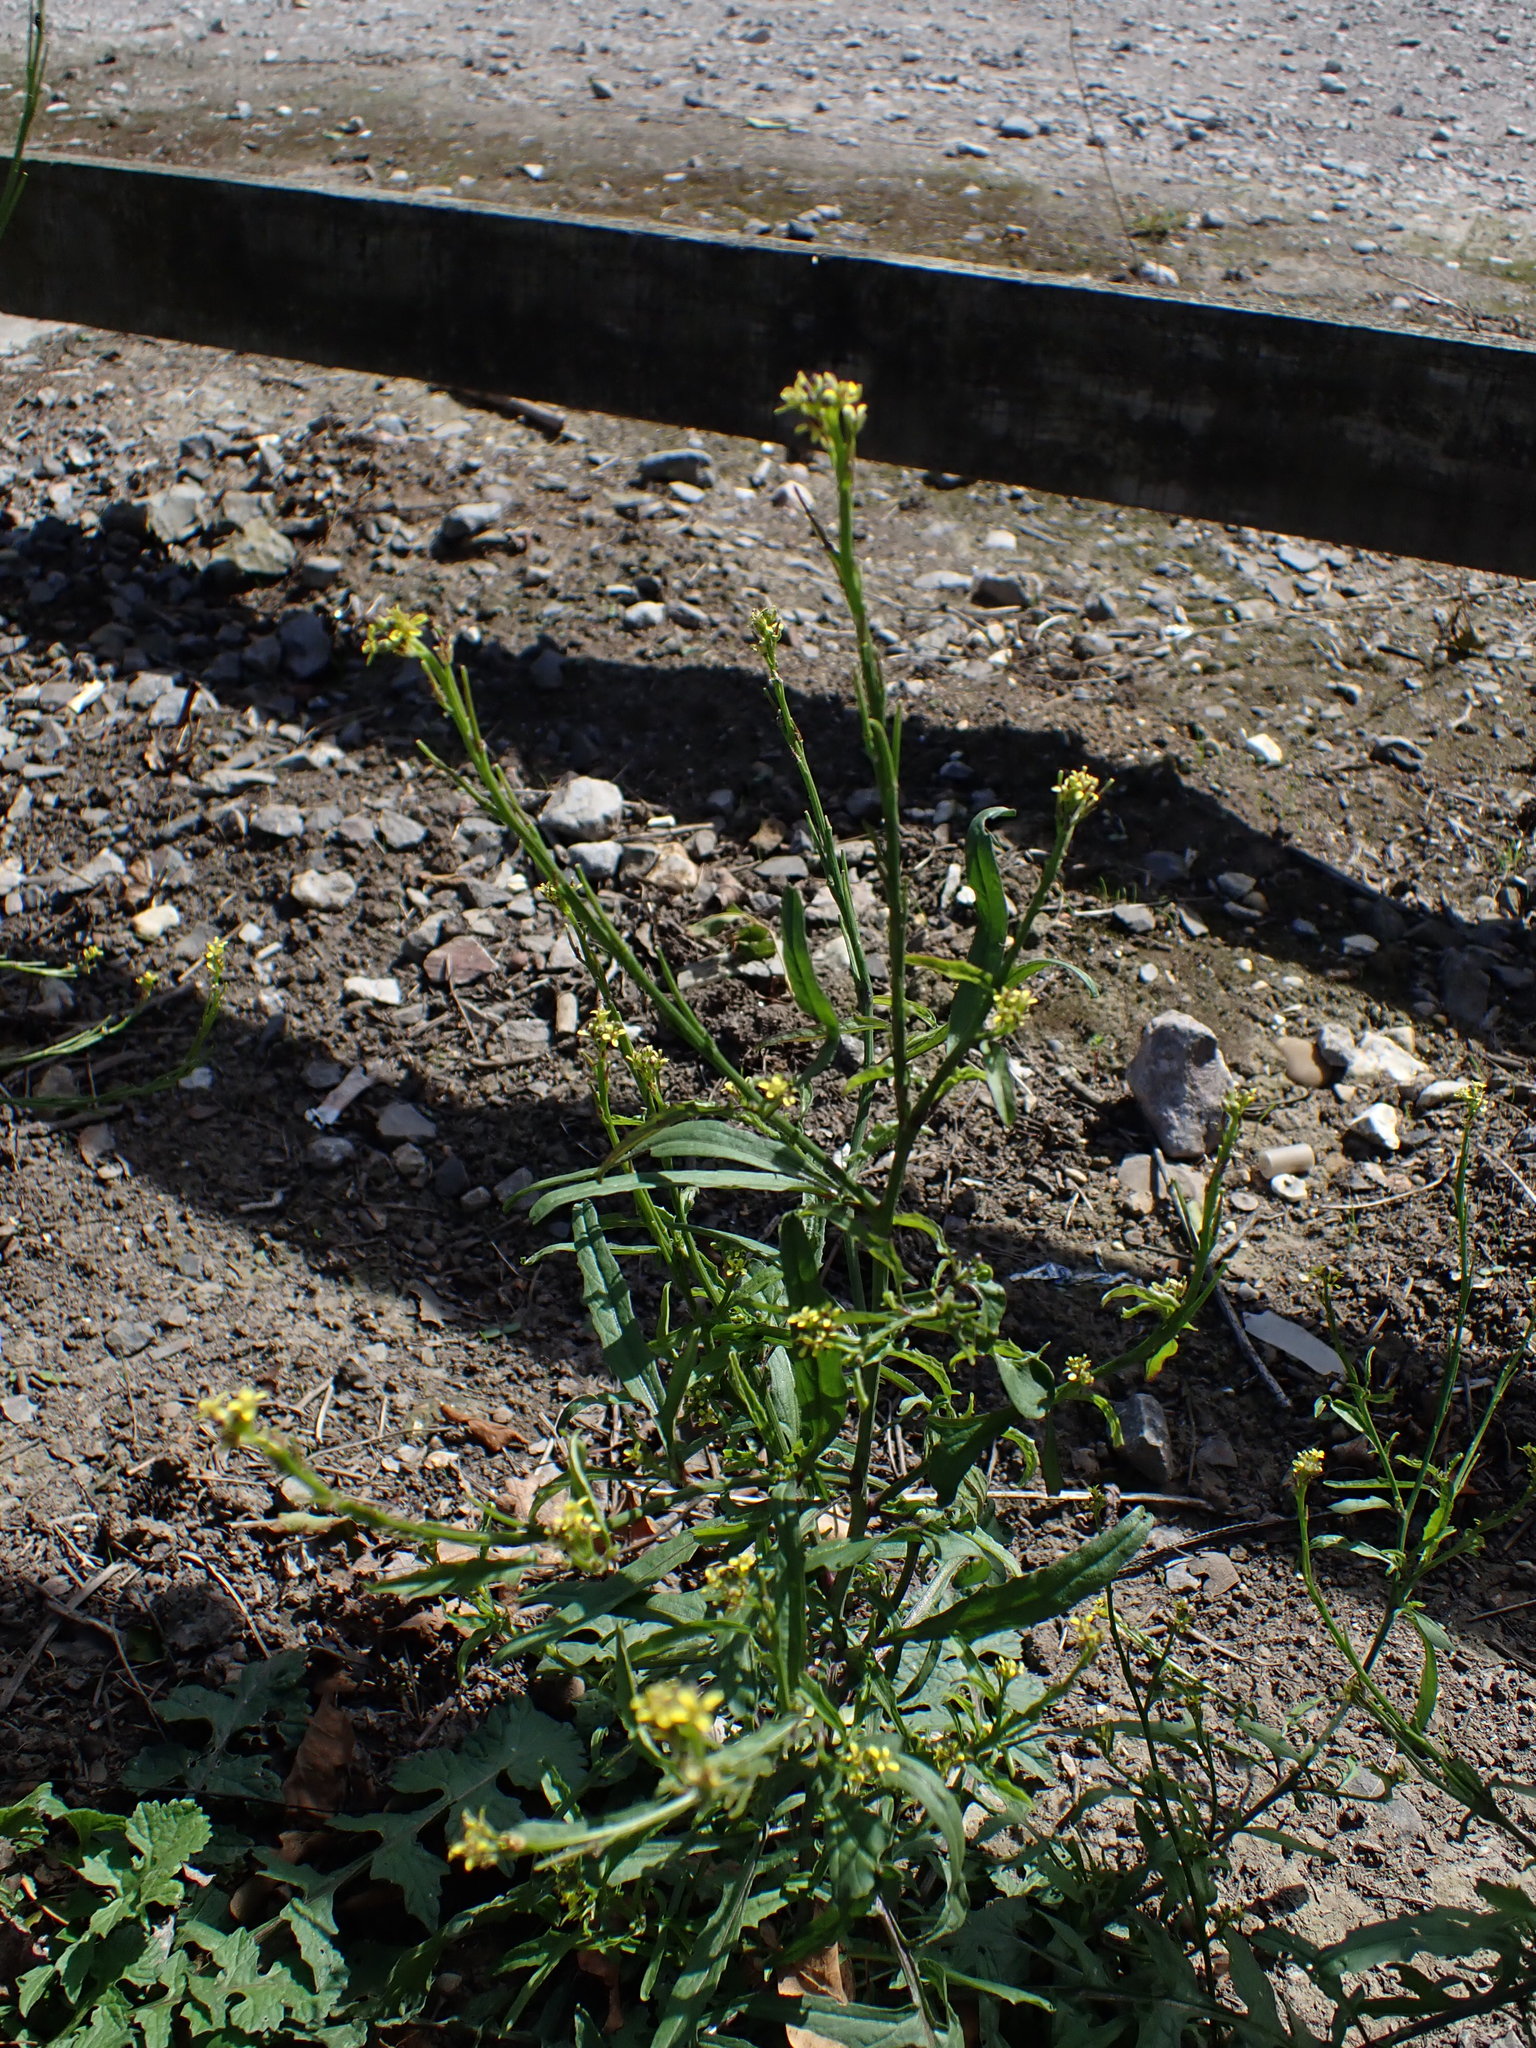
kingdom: Plantae
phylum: Tracheophyta
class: Magnoliopsida
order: Brassicales
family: Brassicaceae
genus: Sisymbrium
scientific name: Sisymbrium officinale
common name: Hedge mustard
